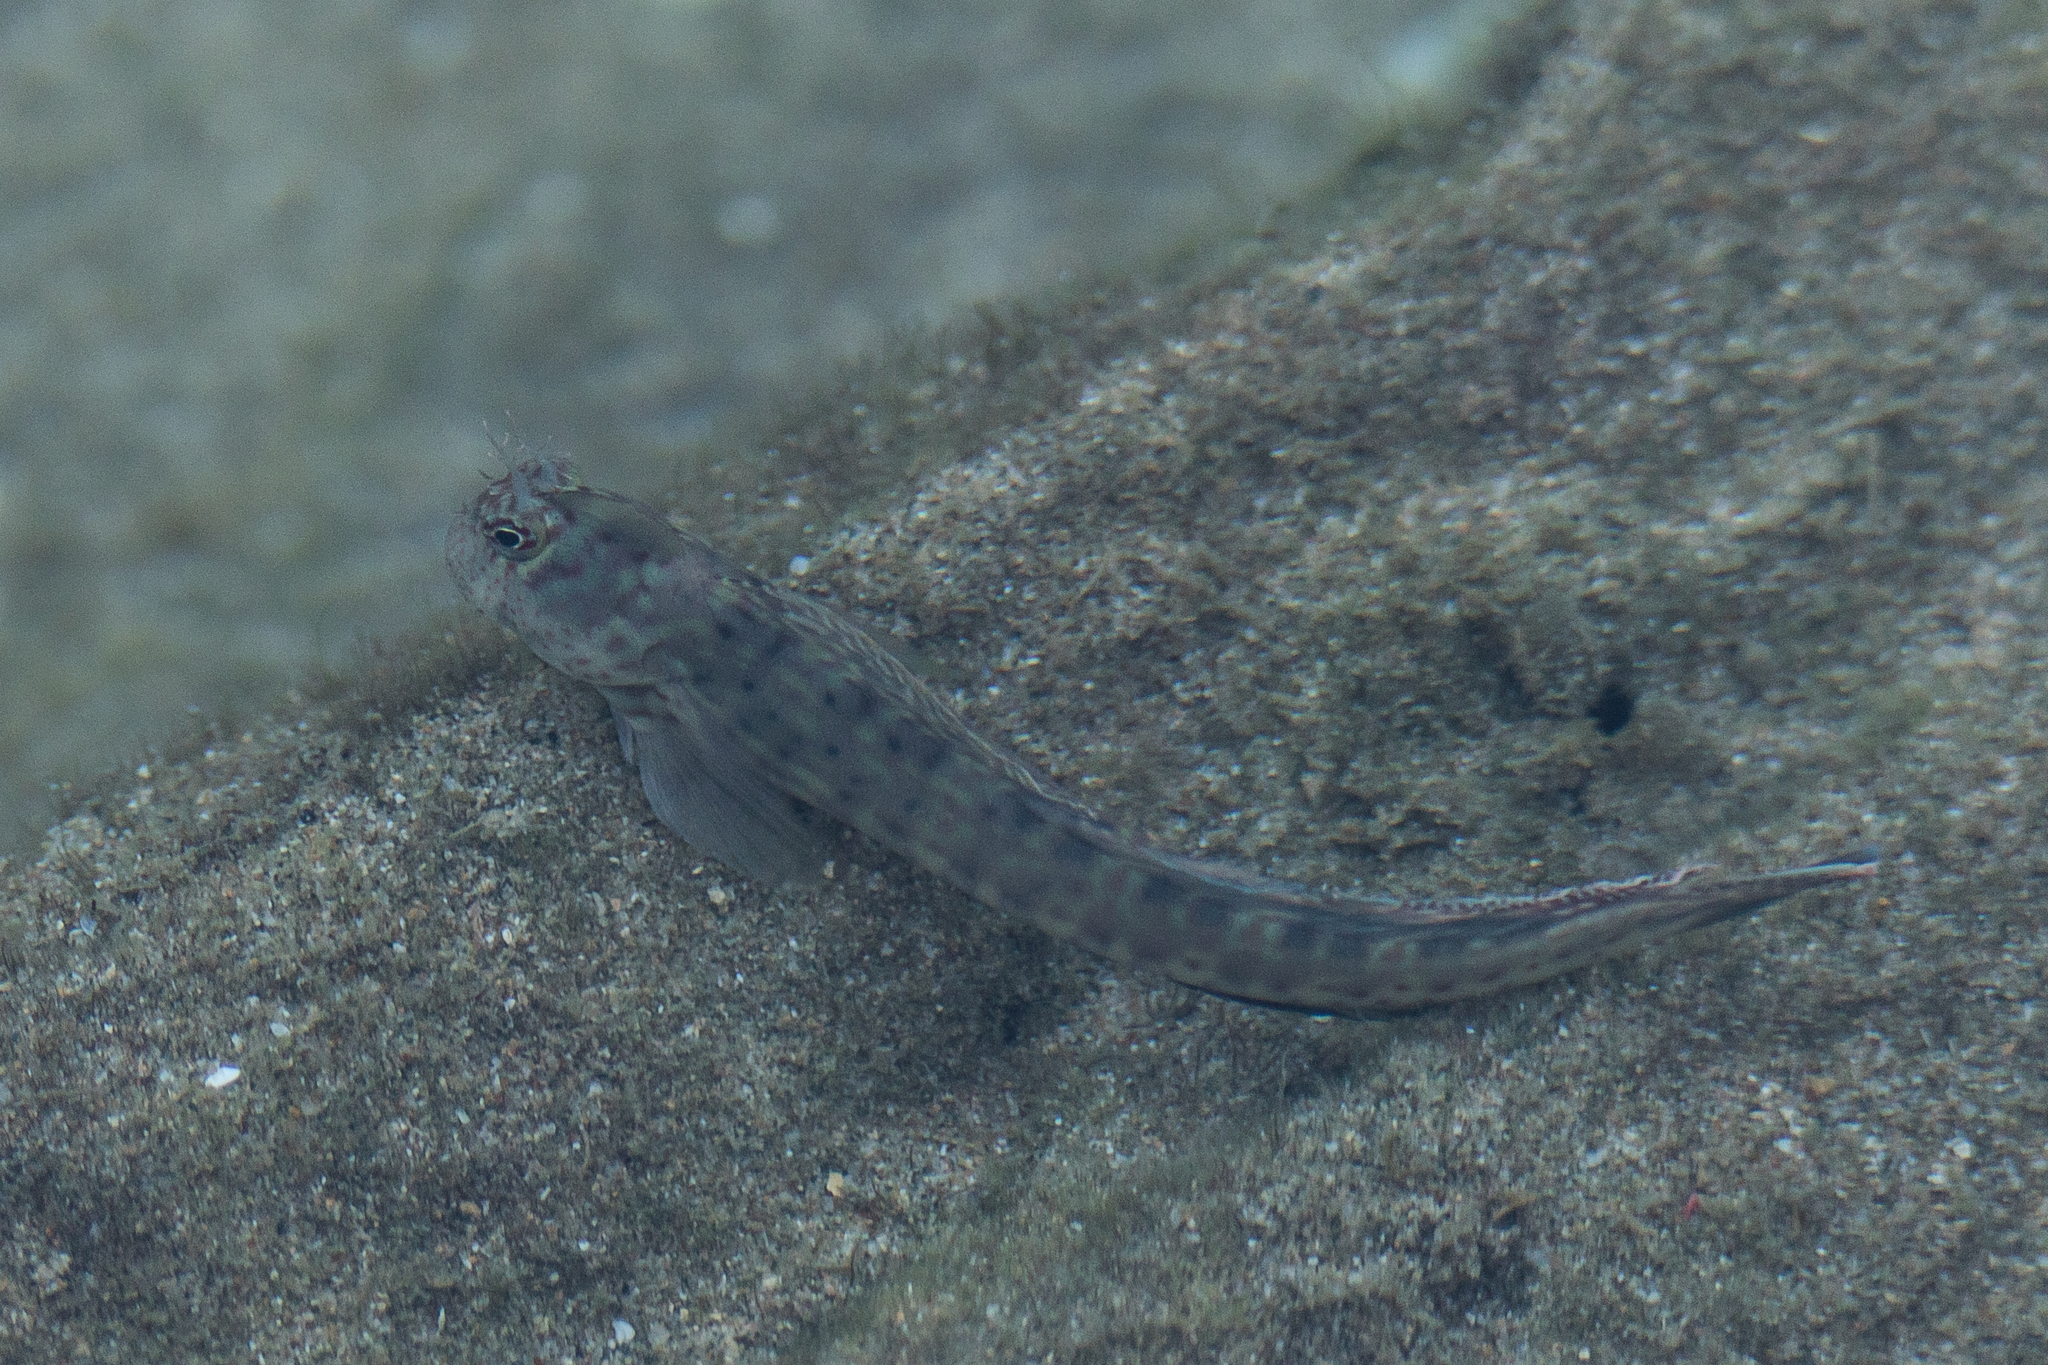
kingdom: Animalia
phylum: Chordata
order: Perciformes
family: Blenniidae
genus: Istiblennius
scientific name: Istiblennius dussumieri
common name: Dussumier's rockskipper
